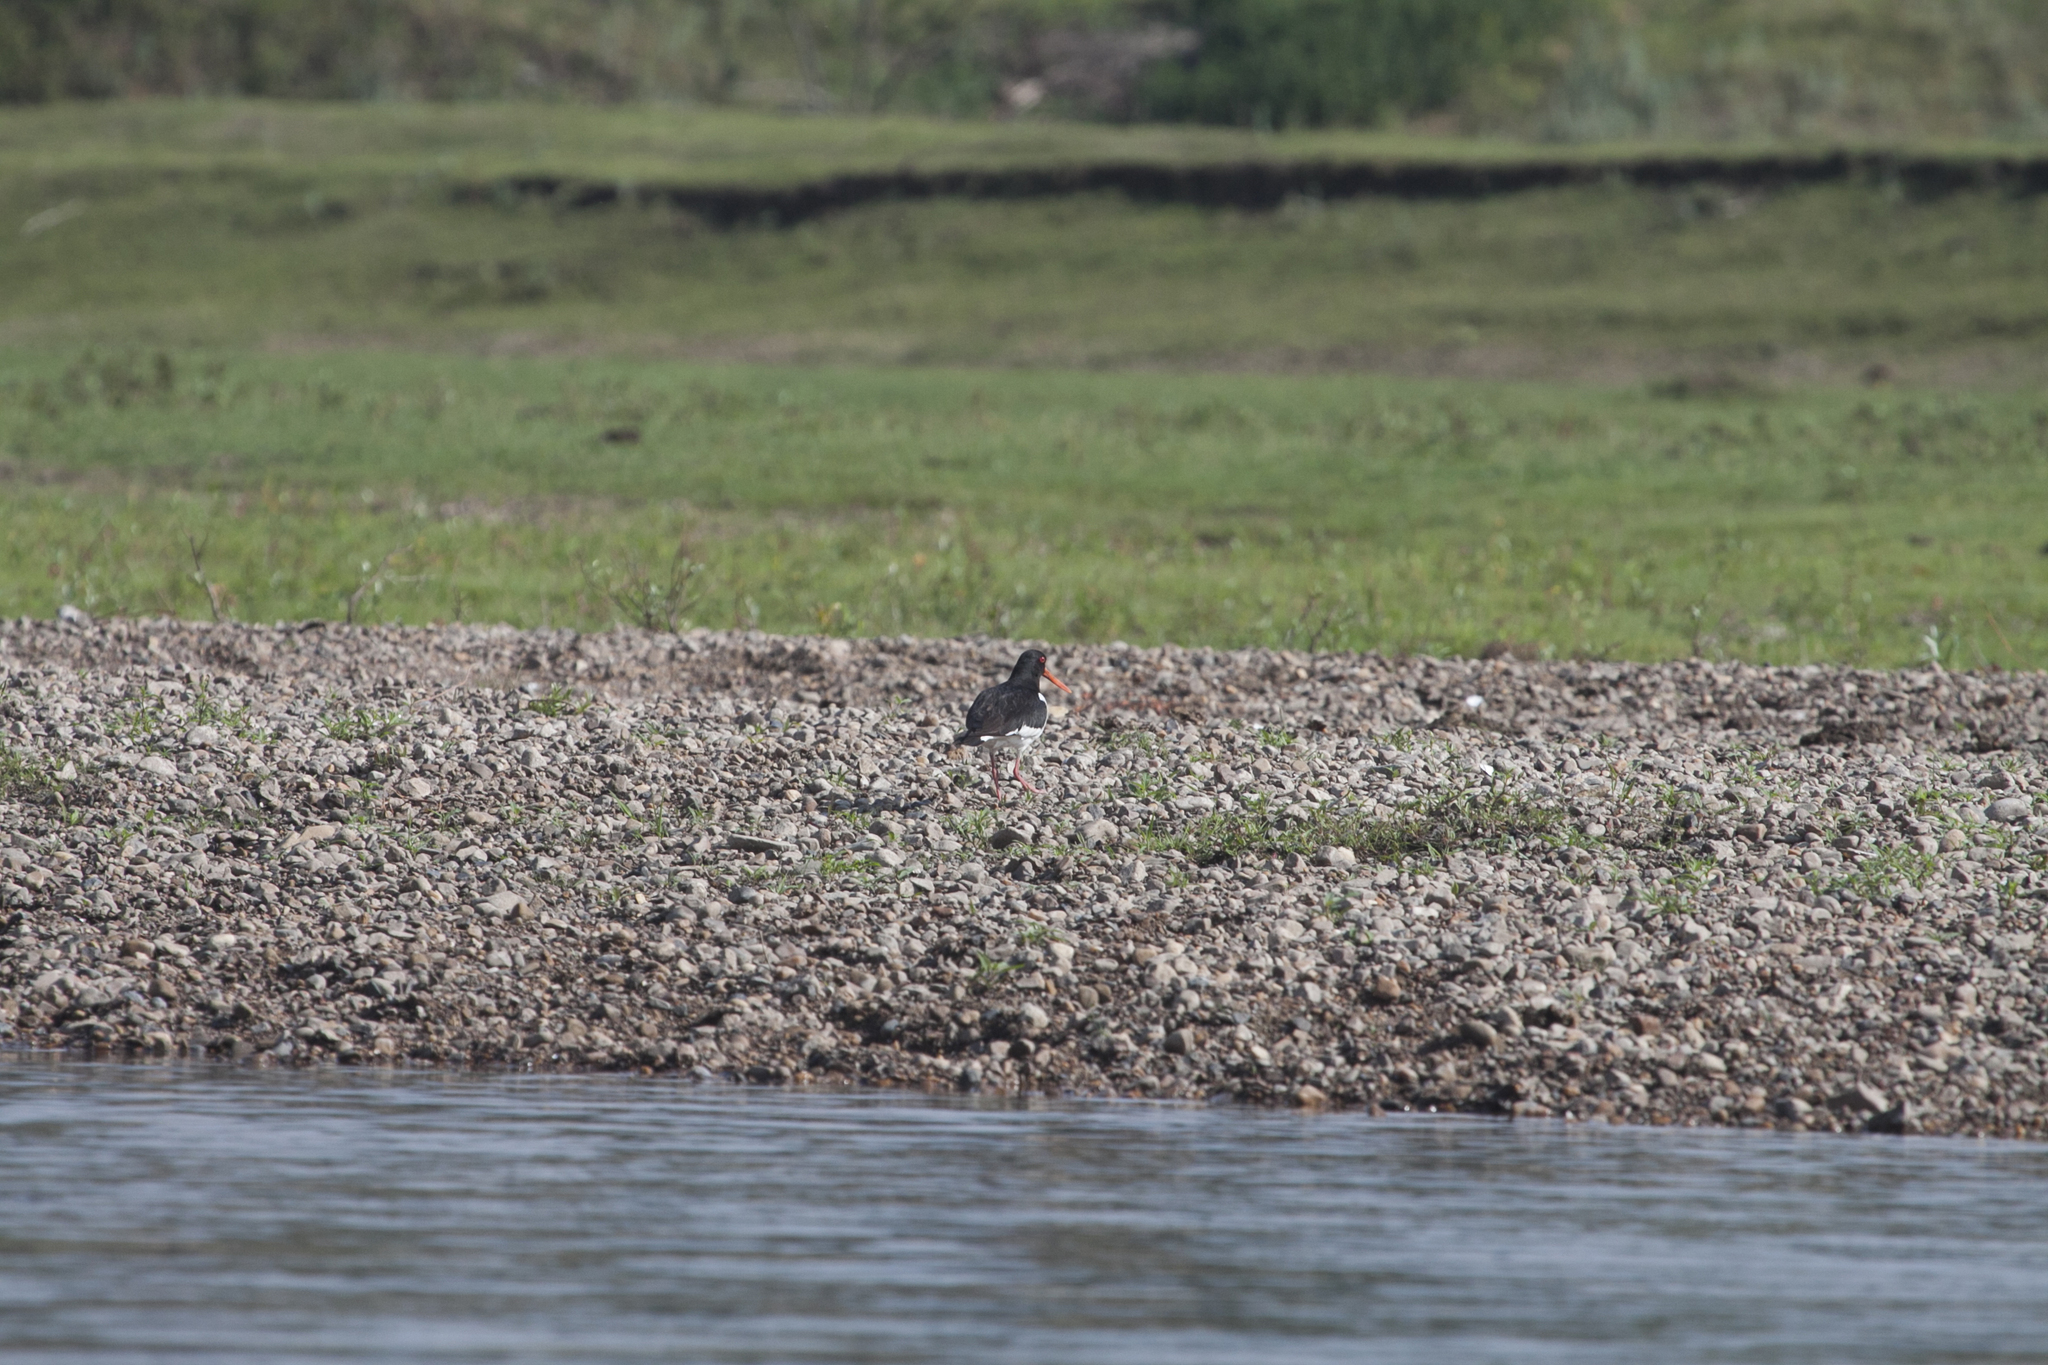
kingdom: Animalia
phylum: Chordata
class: Aves
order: Charadriiformes
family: Haematopodidae
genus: Haematopus
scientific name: Haematopus ostralegus
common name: Eurasian oystercatcher
